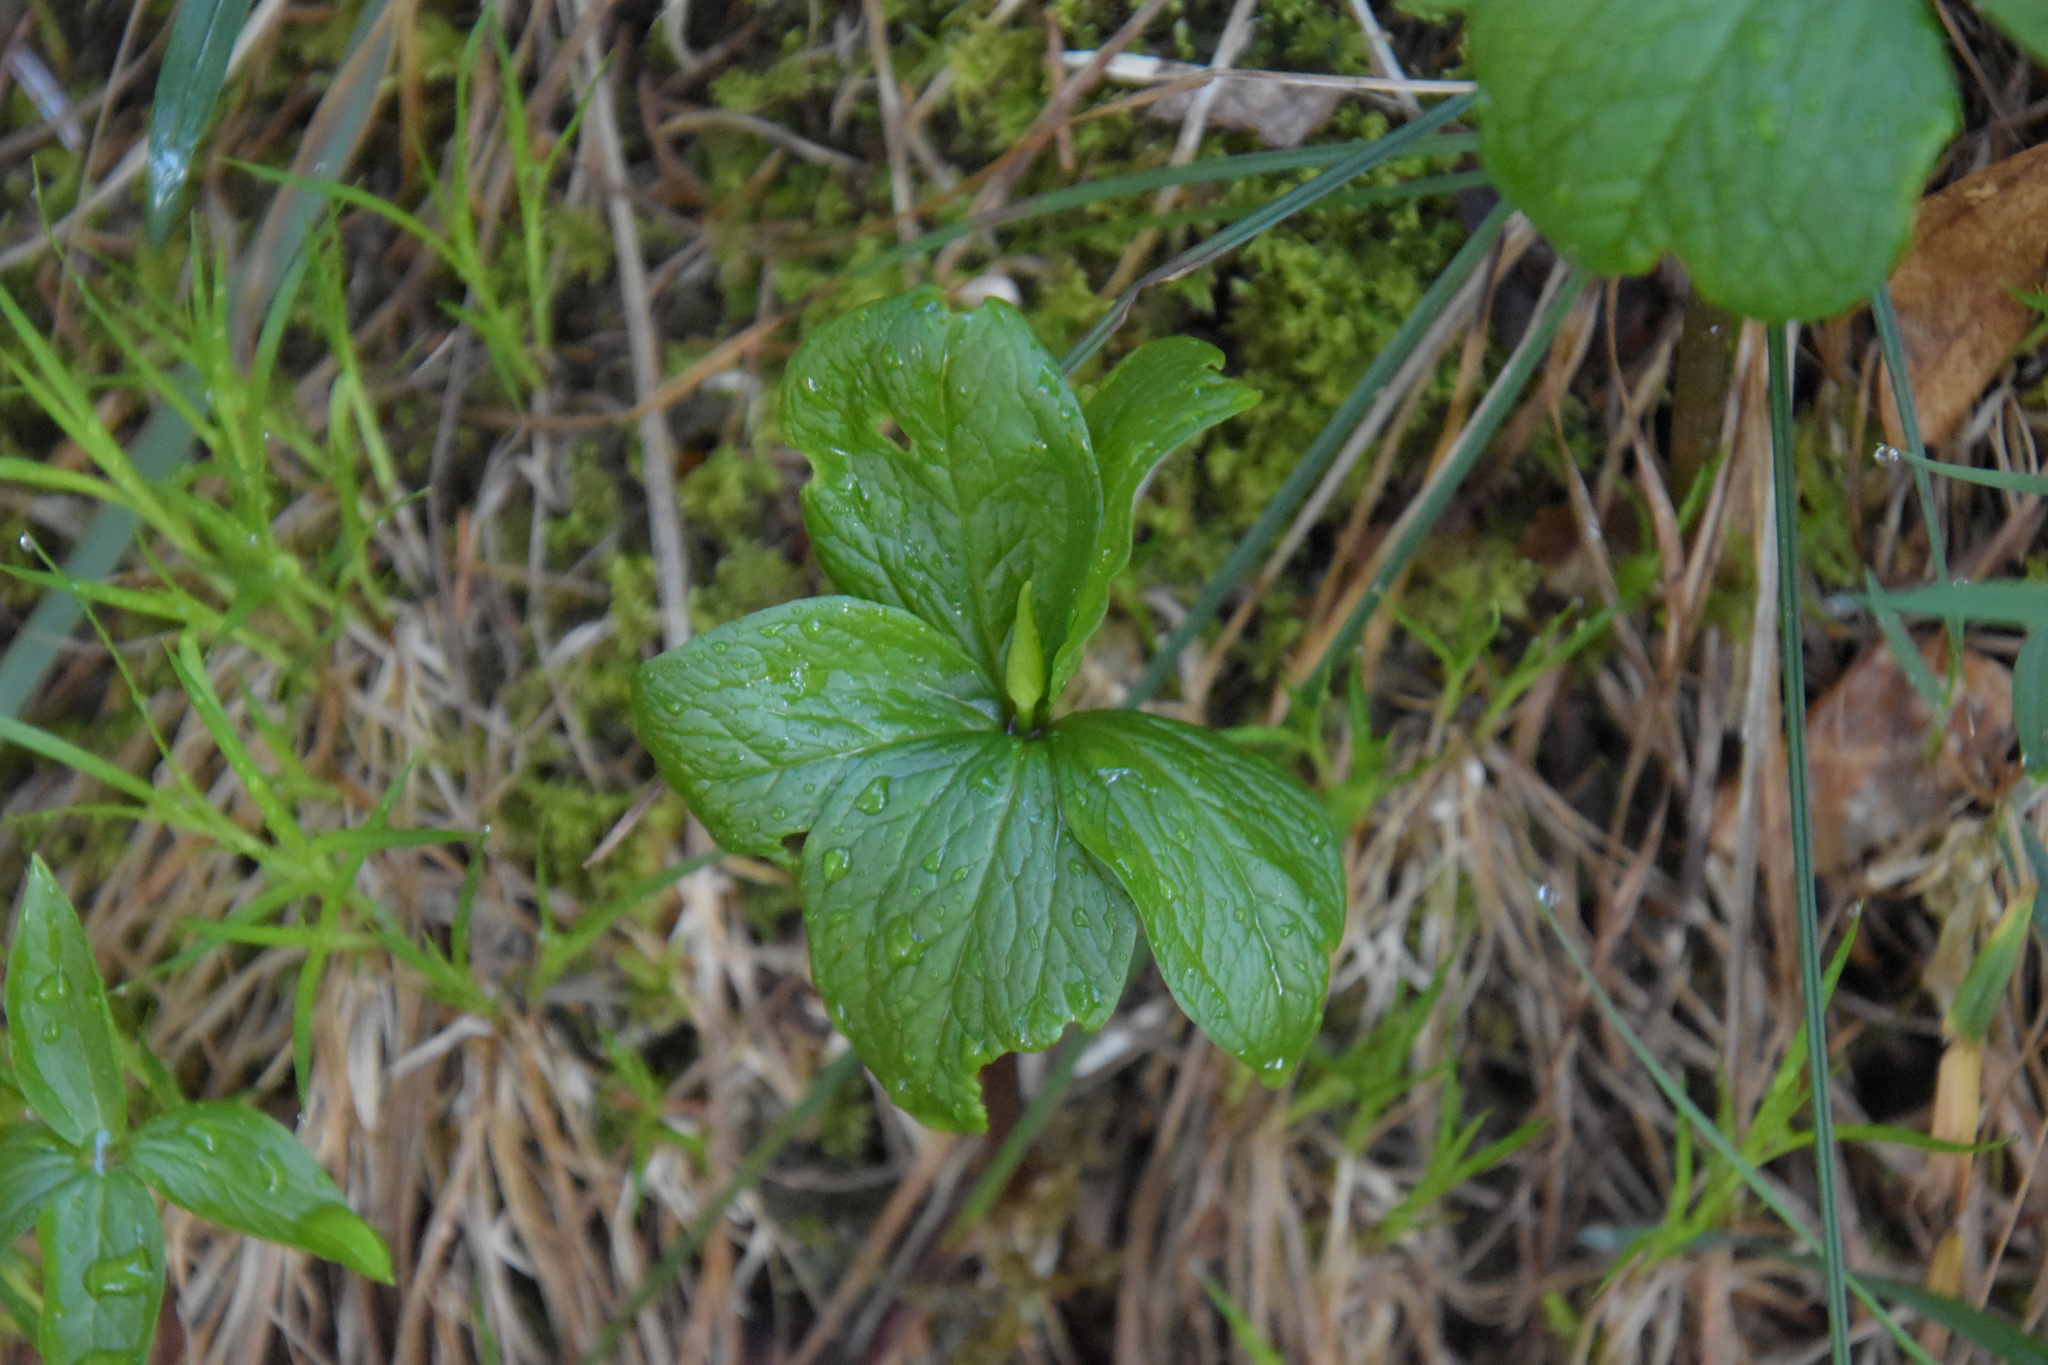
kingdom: Plantae
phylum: Tracheophyta
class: Liliopsida
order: Liliales
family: Melanthiaceae
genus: Paris
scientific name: Paris quadrifolia
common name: Herb-paris
